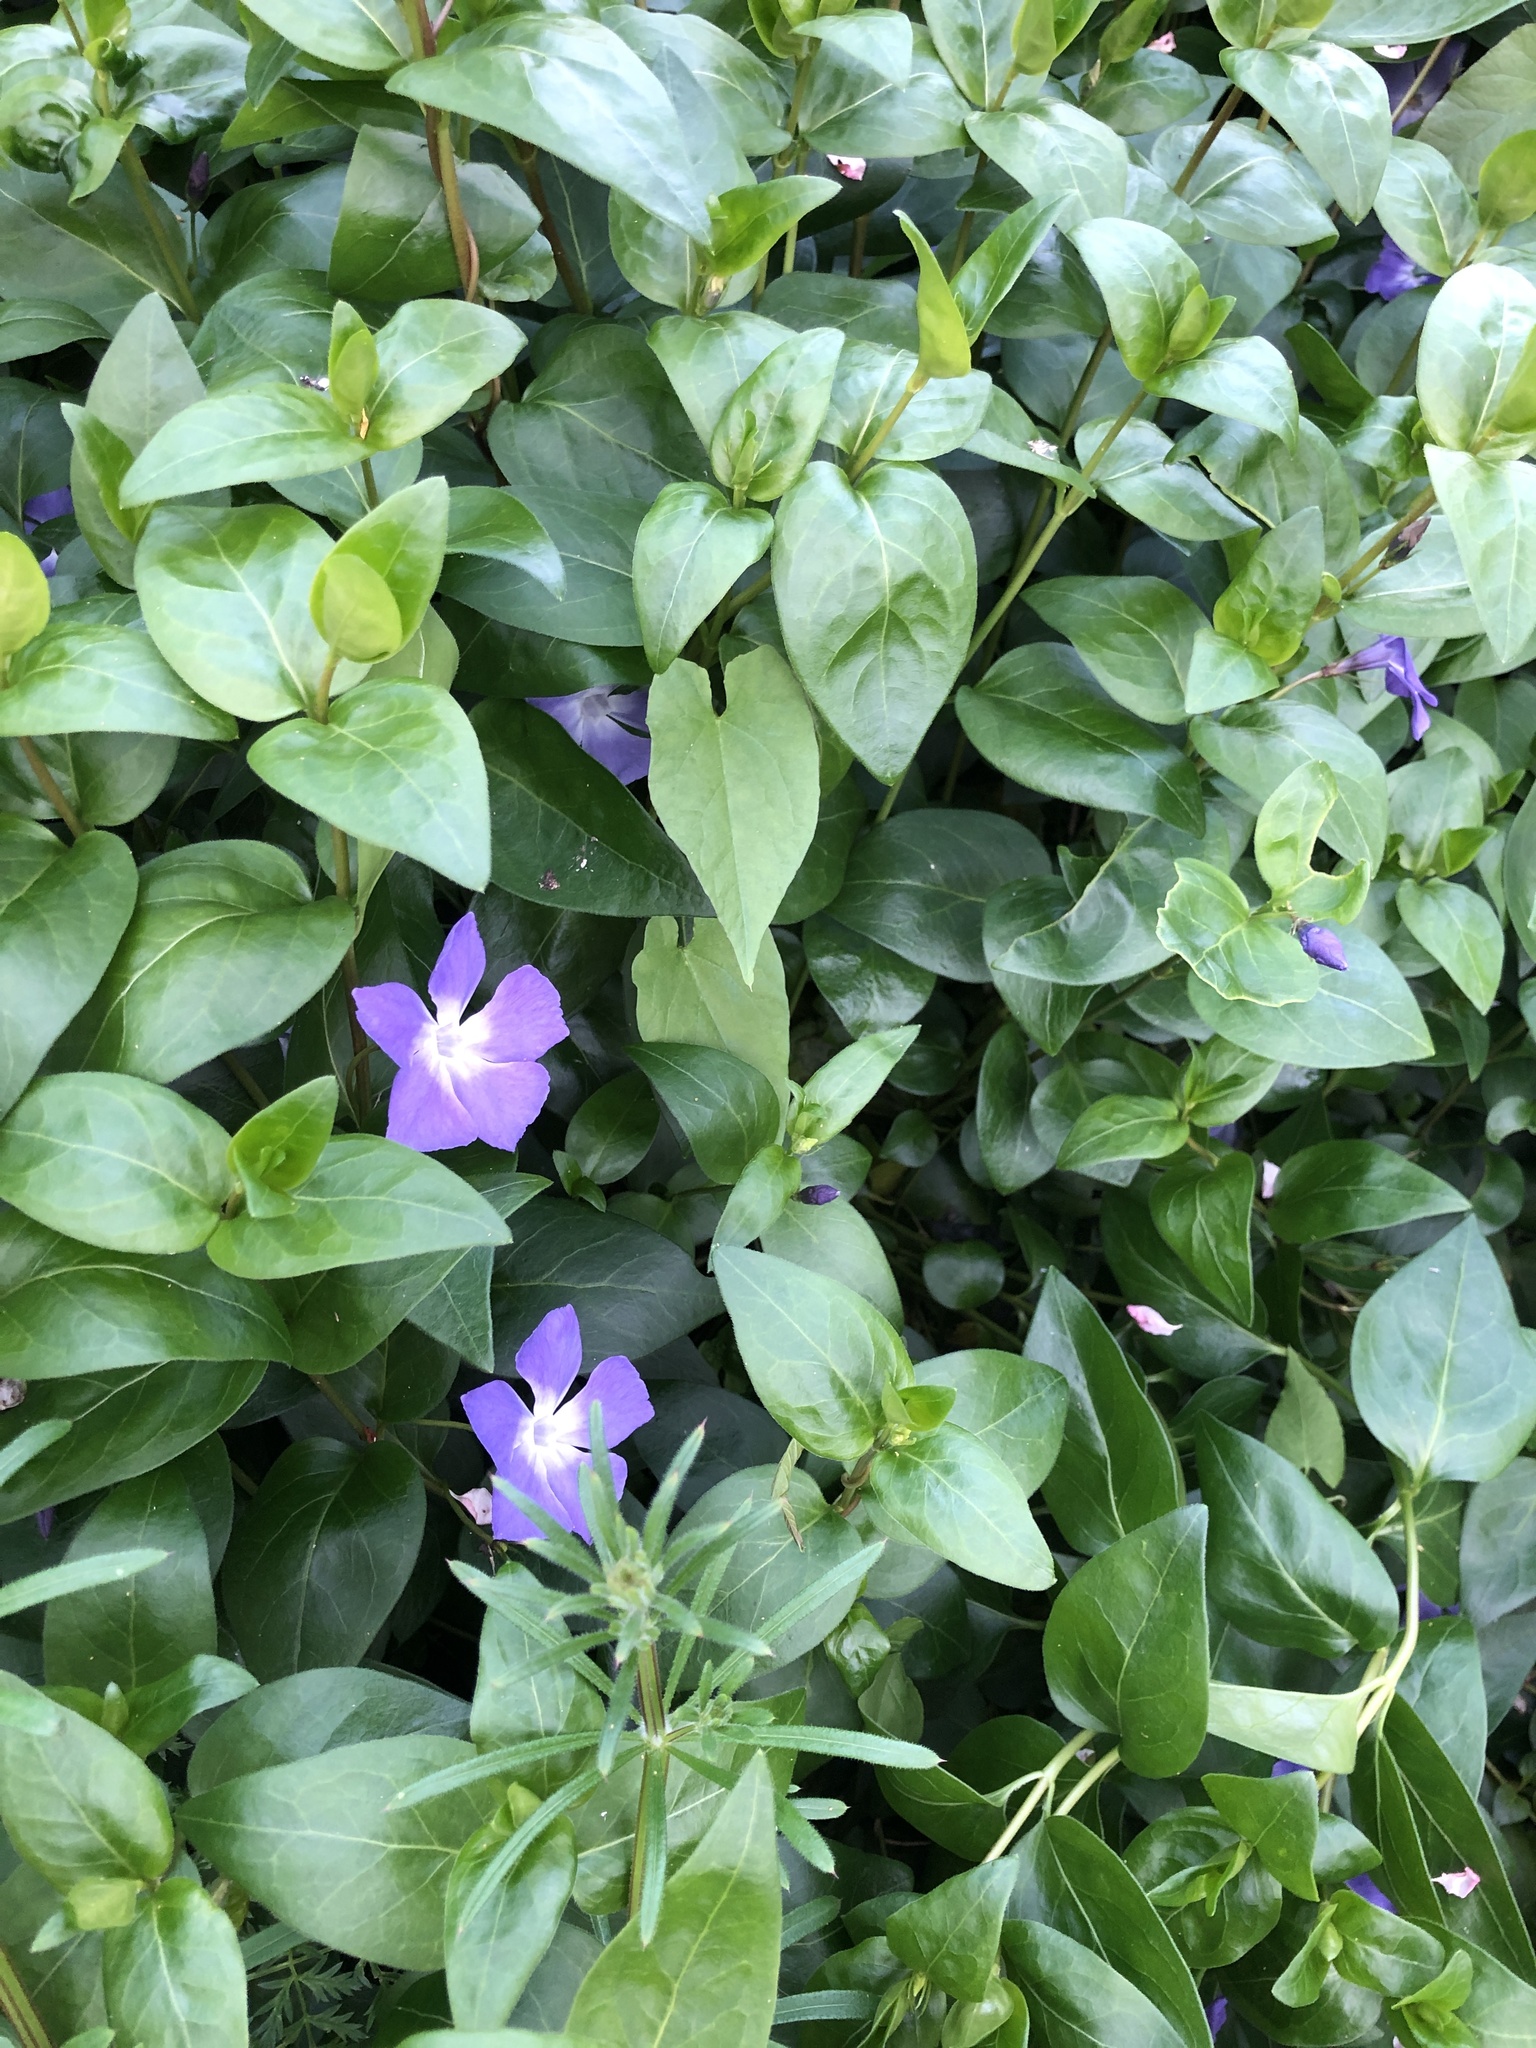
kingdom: Plantae
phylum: Tracheophyta
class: Magnoliopsida
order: Gentianales
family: Apocynaceae
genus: Vinca
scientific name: Vinca major
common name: Greater periwinkle
